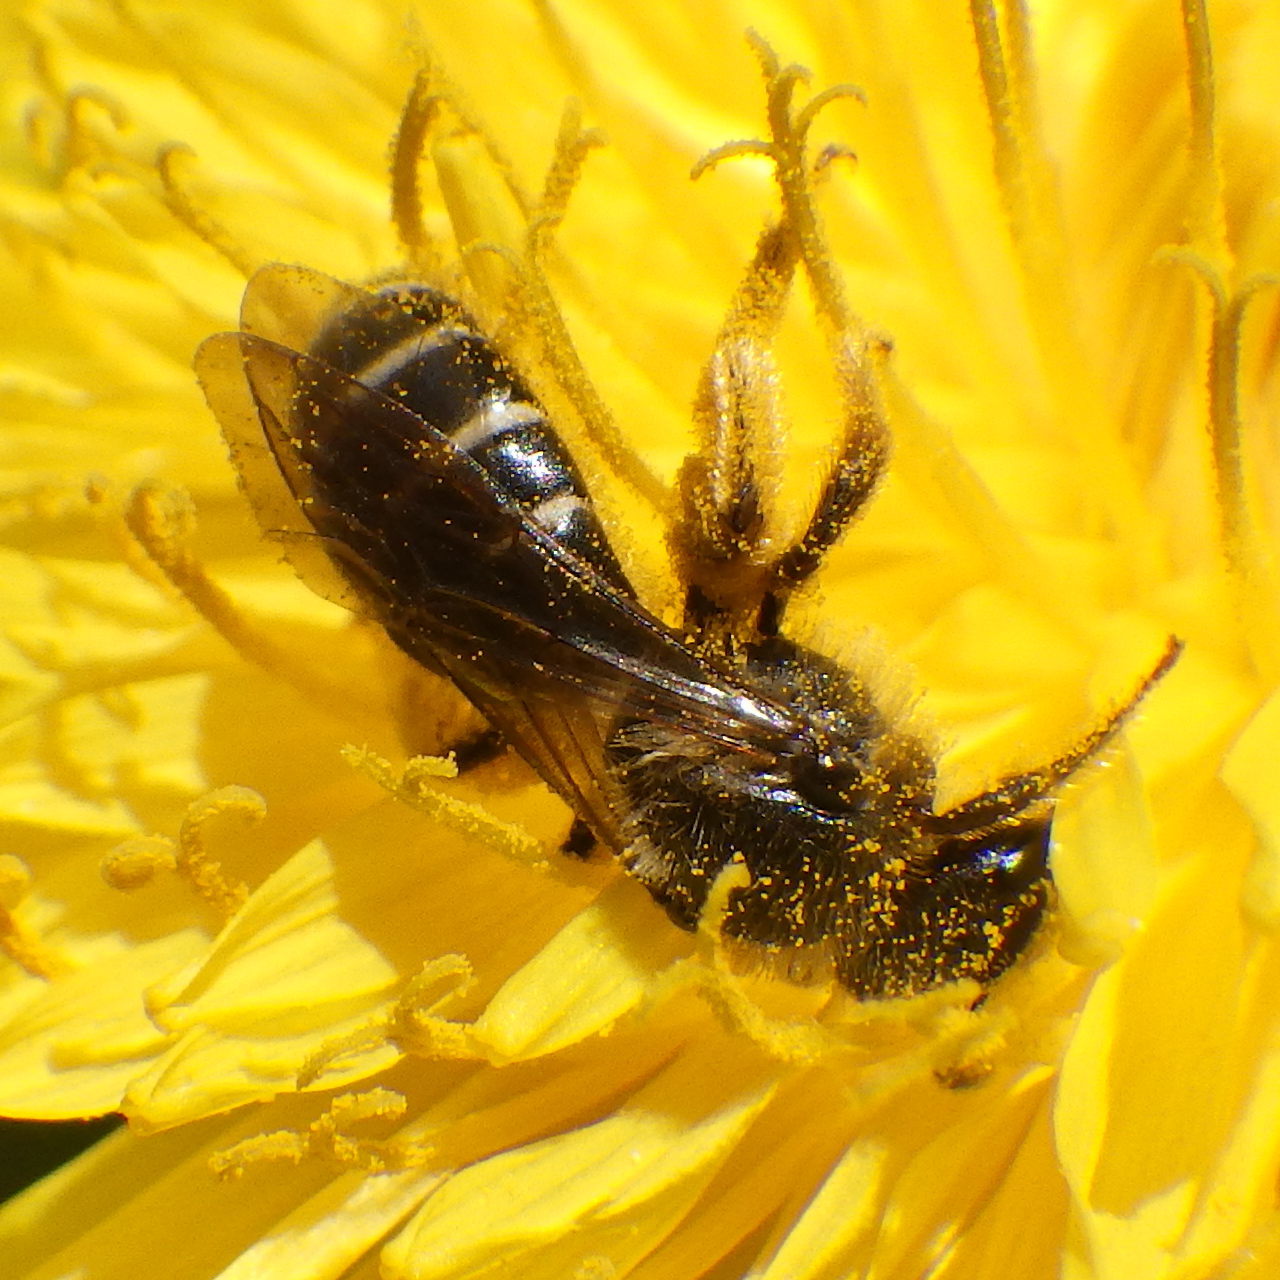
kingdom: Animalia
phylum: Arthropoda
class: Insecta
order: Hymenoptera
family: Halictidae
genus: Halictus
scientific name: Halictus rubicundus
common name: Orange-legged furrow bee
